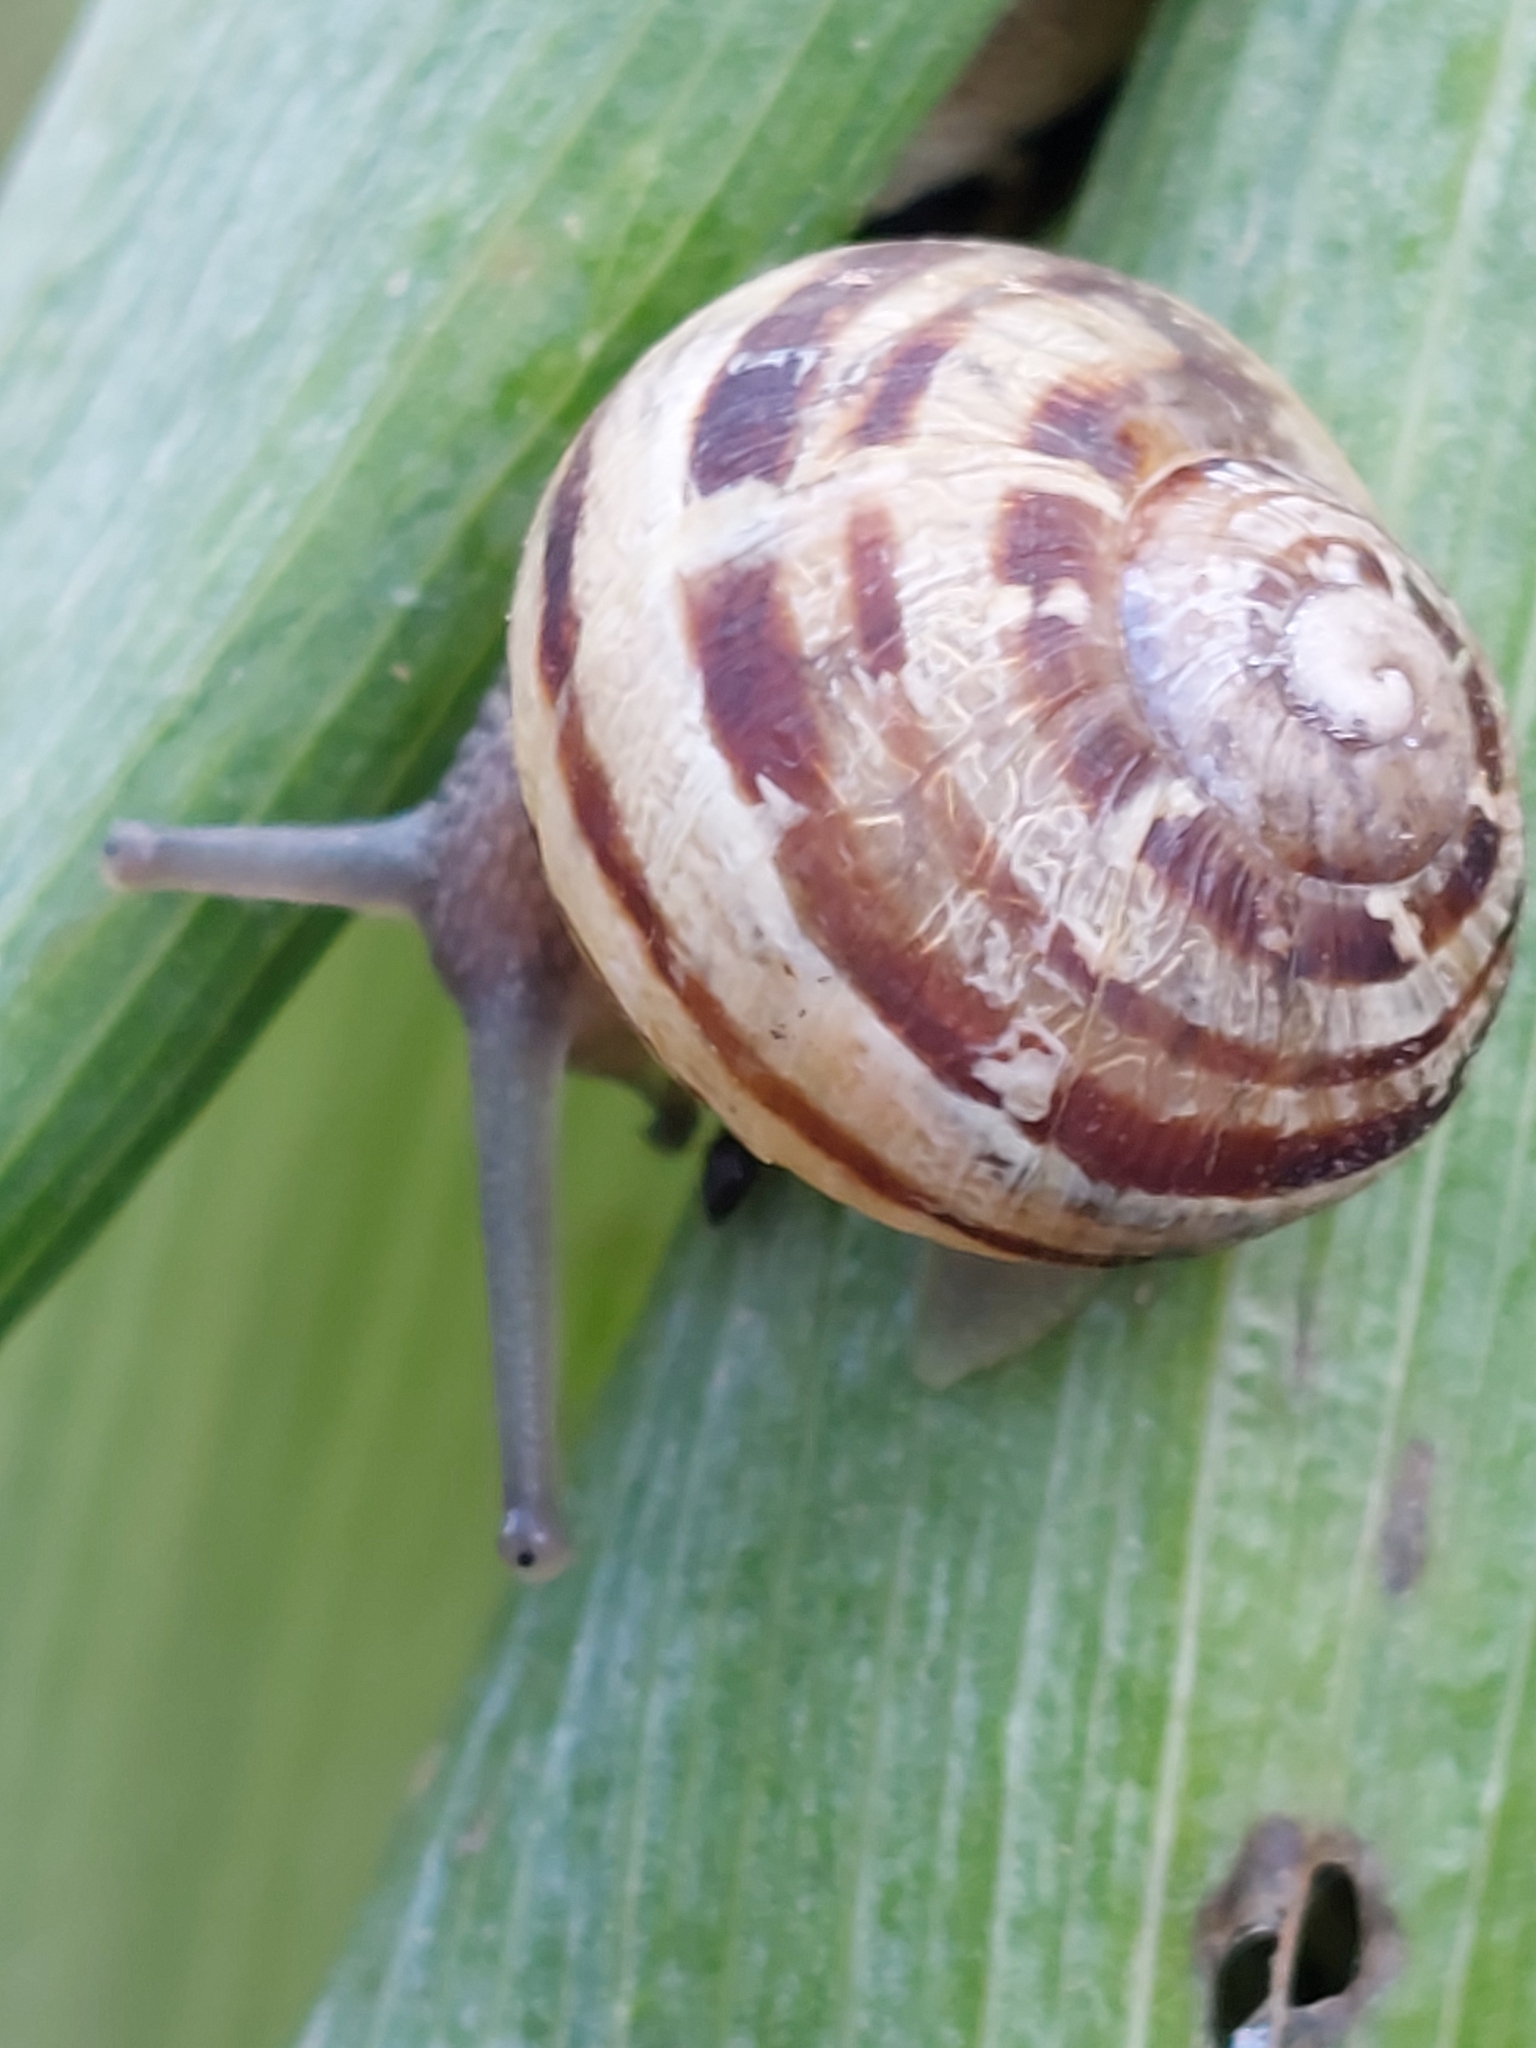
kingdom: Animalia
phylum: Mollusca
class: Gastropoda
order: Stylommatophora
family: Helicidae
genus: Cornu
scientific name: Cornu aspersum
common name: Brown garden snail
